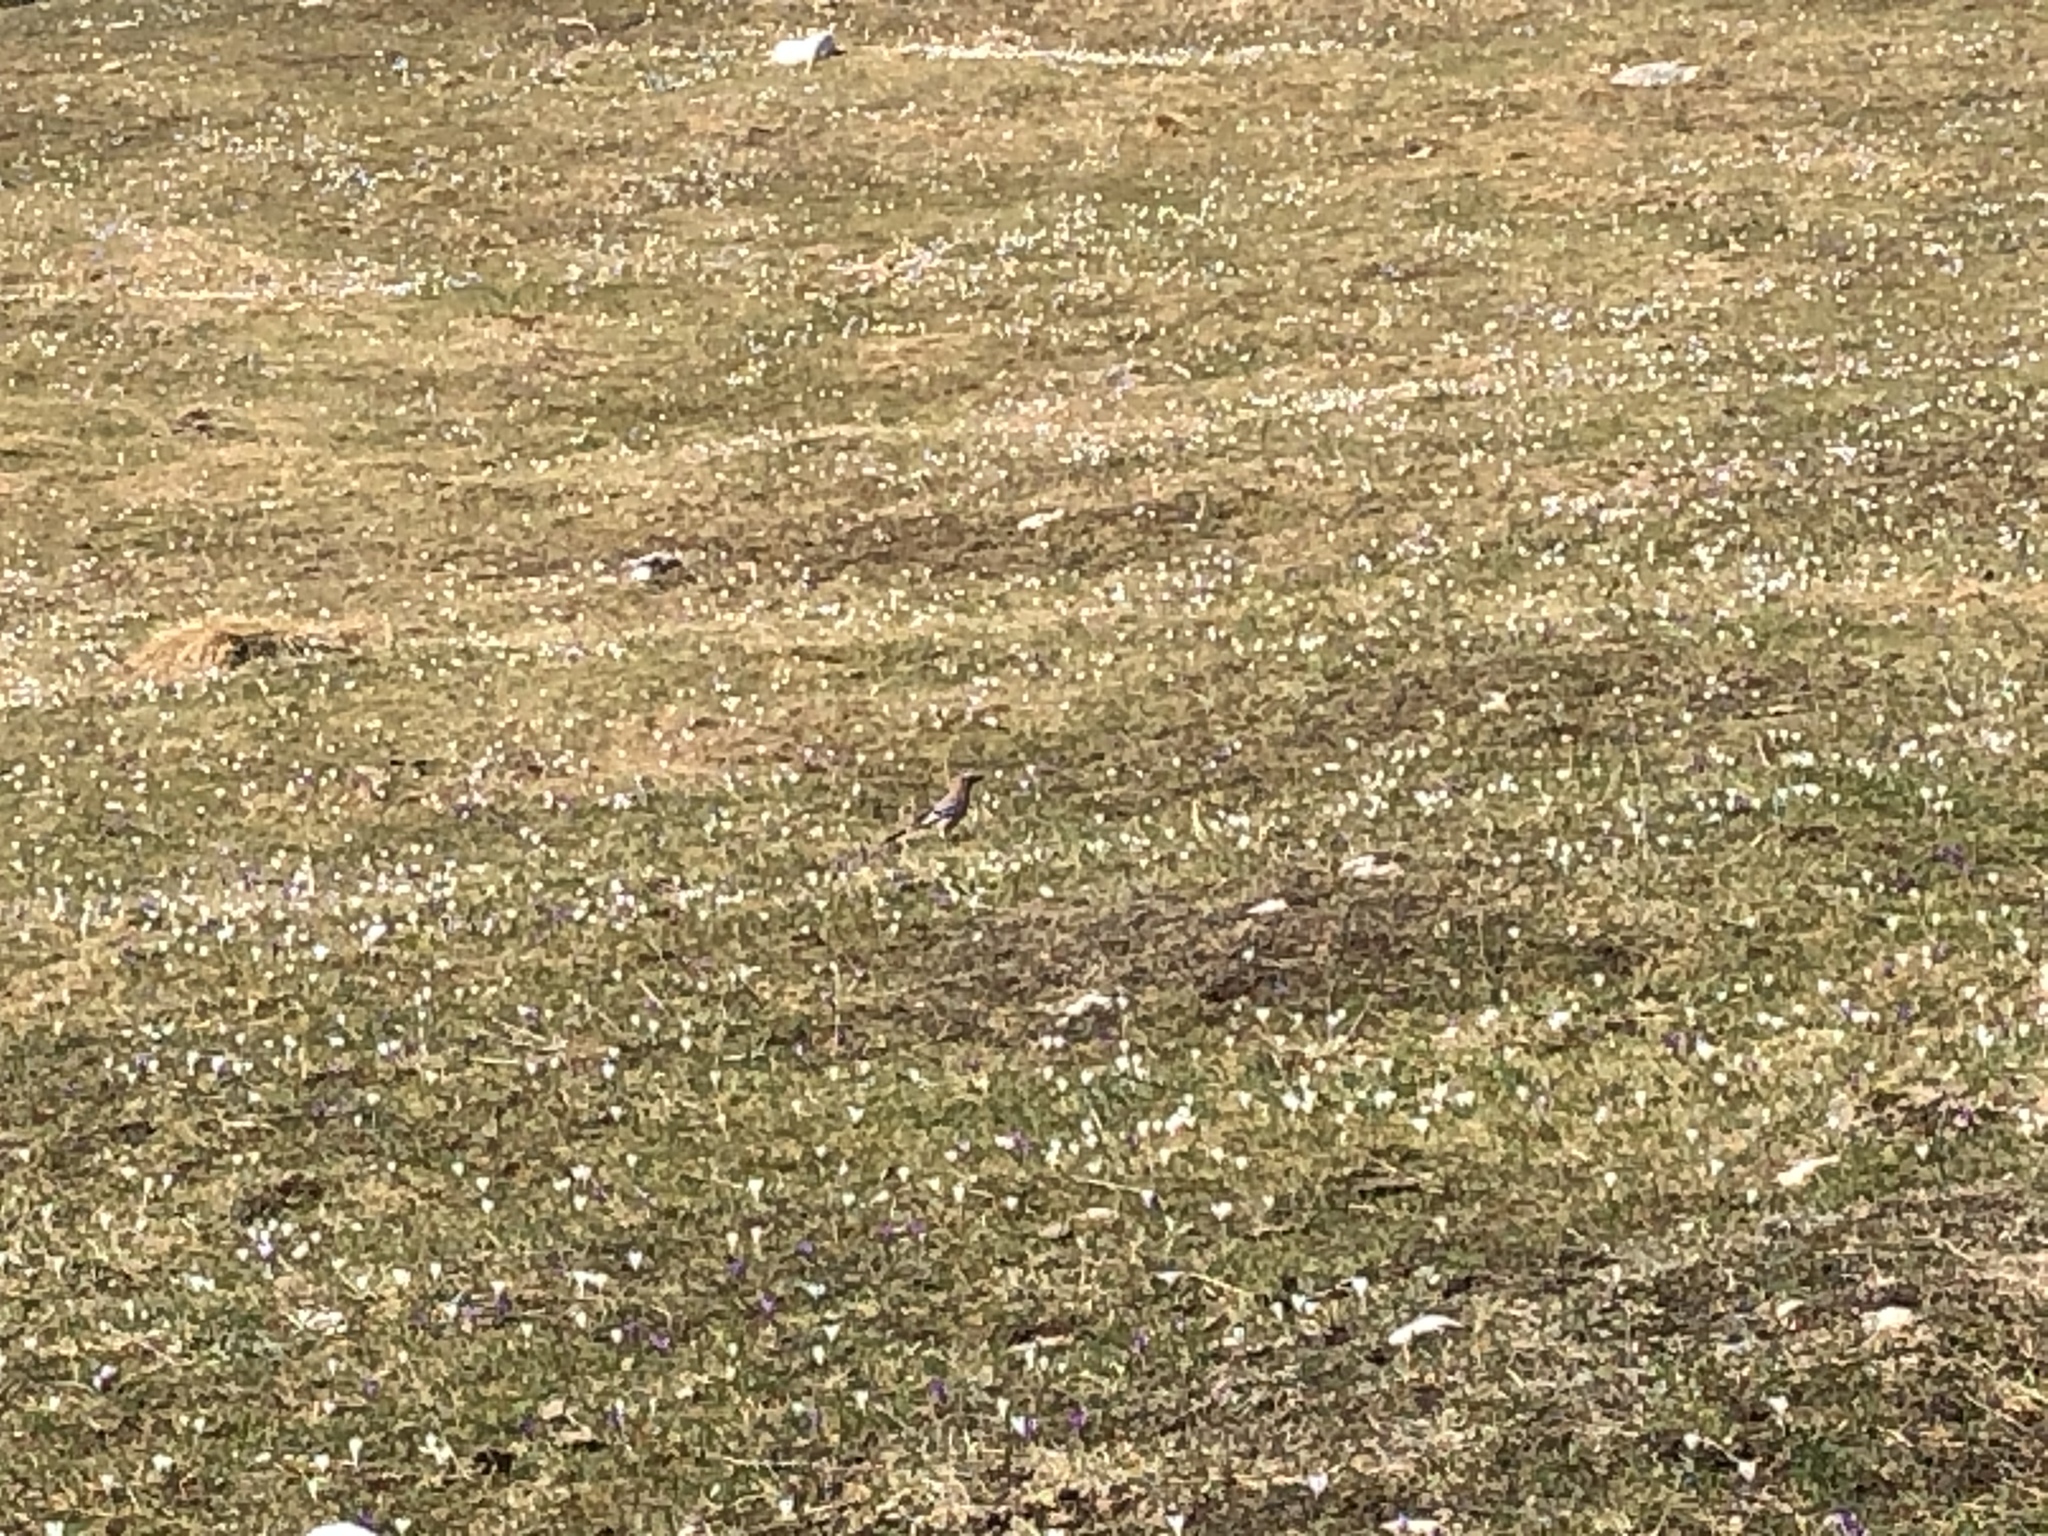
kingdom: Animalia
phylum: Chordata
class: Aves
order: Passeriformes
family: Corvidae
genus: Garrulus
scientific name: Garrulus glandarius
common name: Eurasian jay
